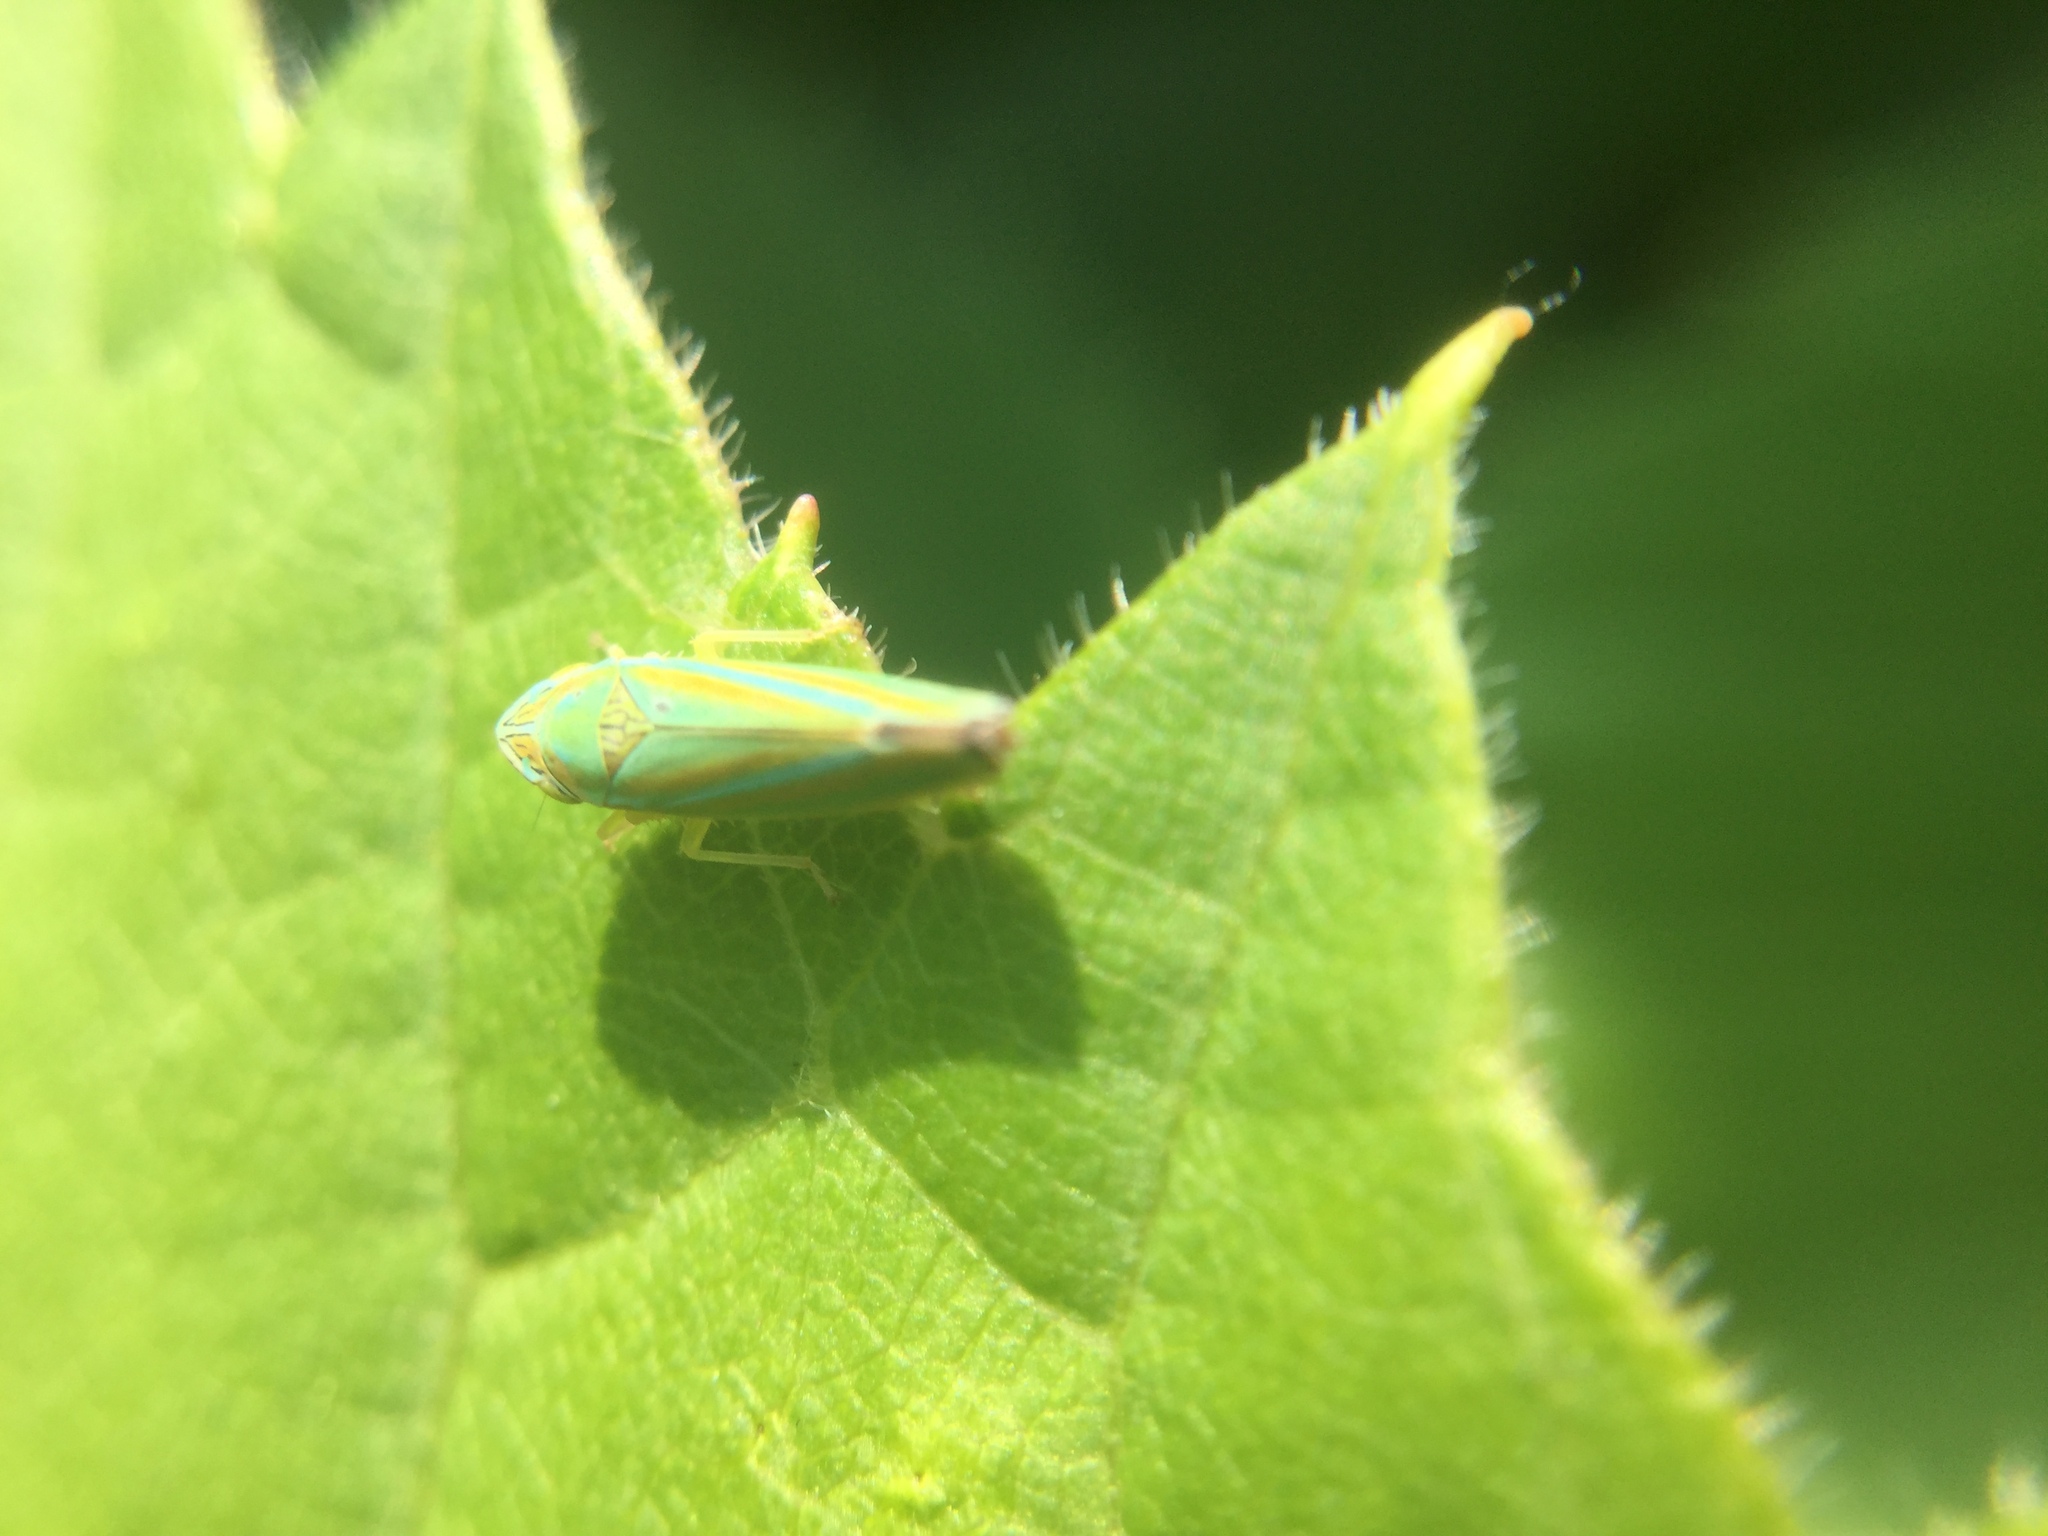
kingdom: Animalia
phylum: Arthropoda
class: Insecta
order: Hemiptera
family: Cicadellidae
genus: Graphocephala
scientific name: Graphocephala versuta
